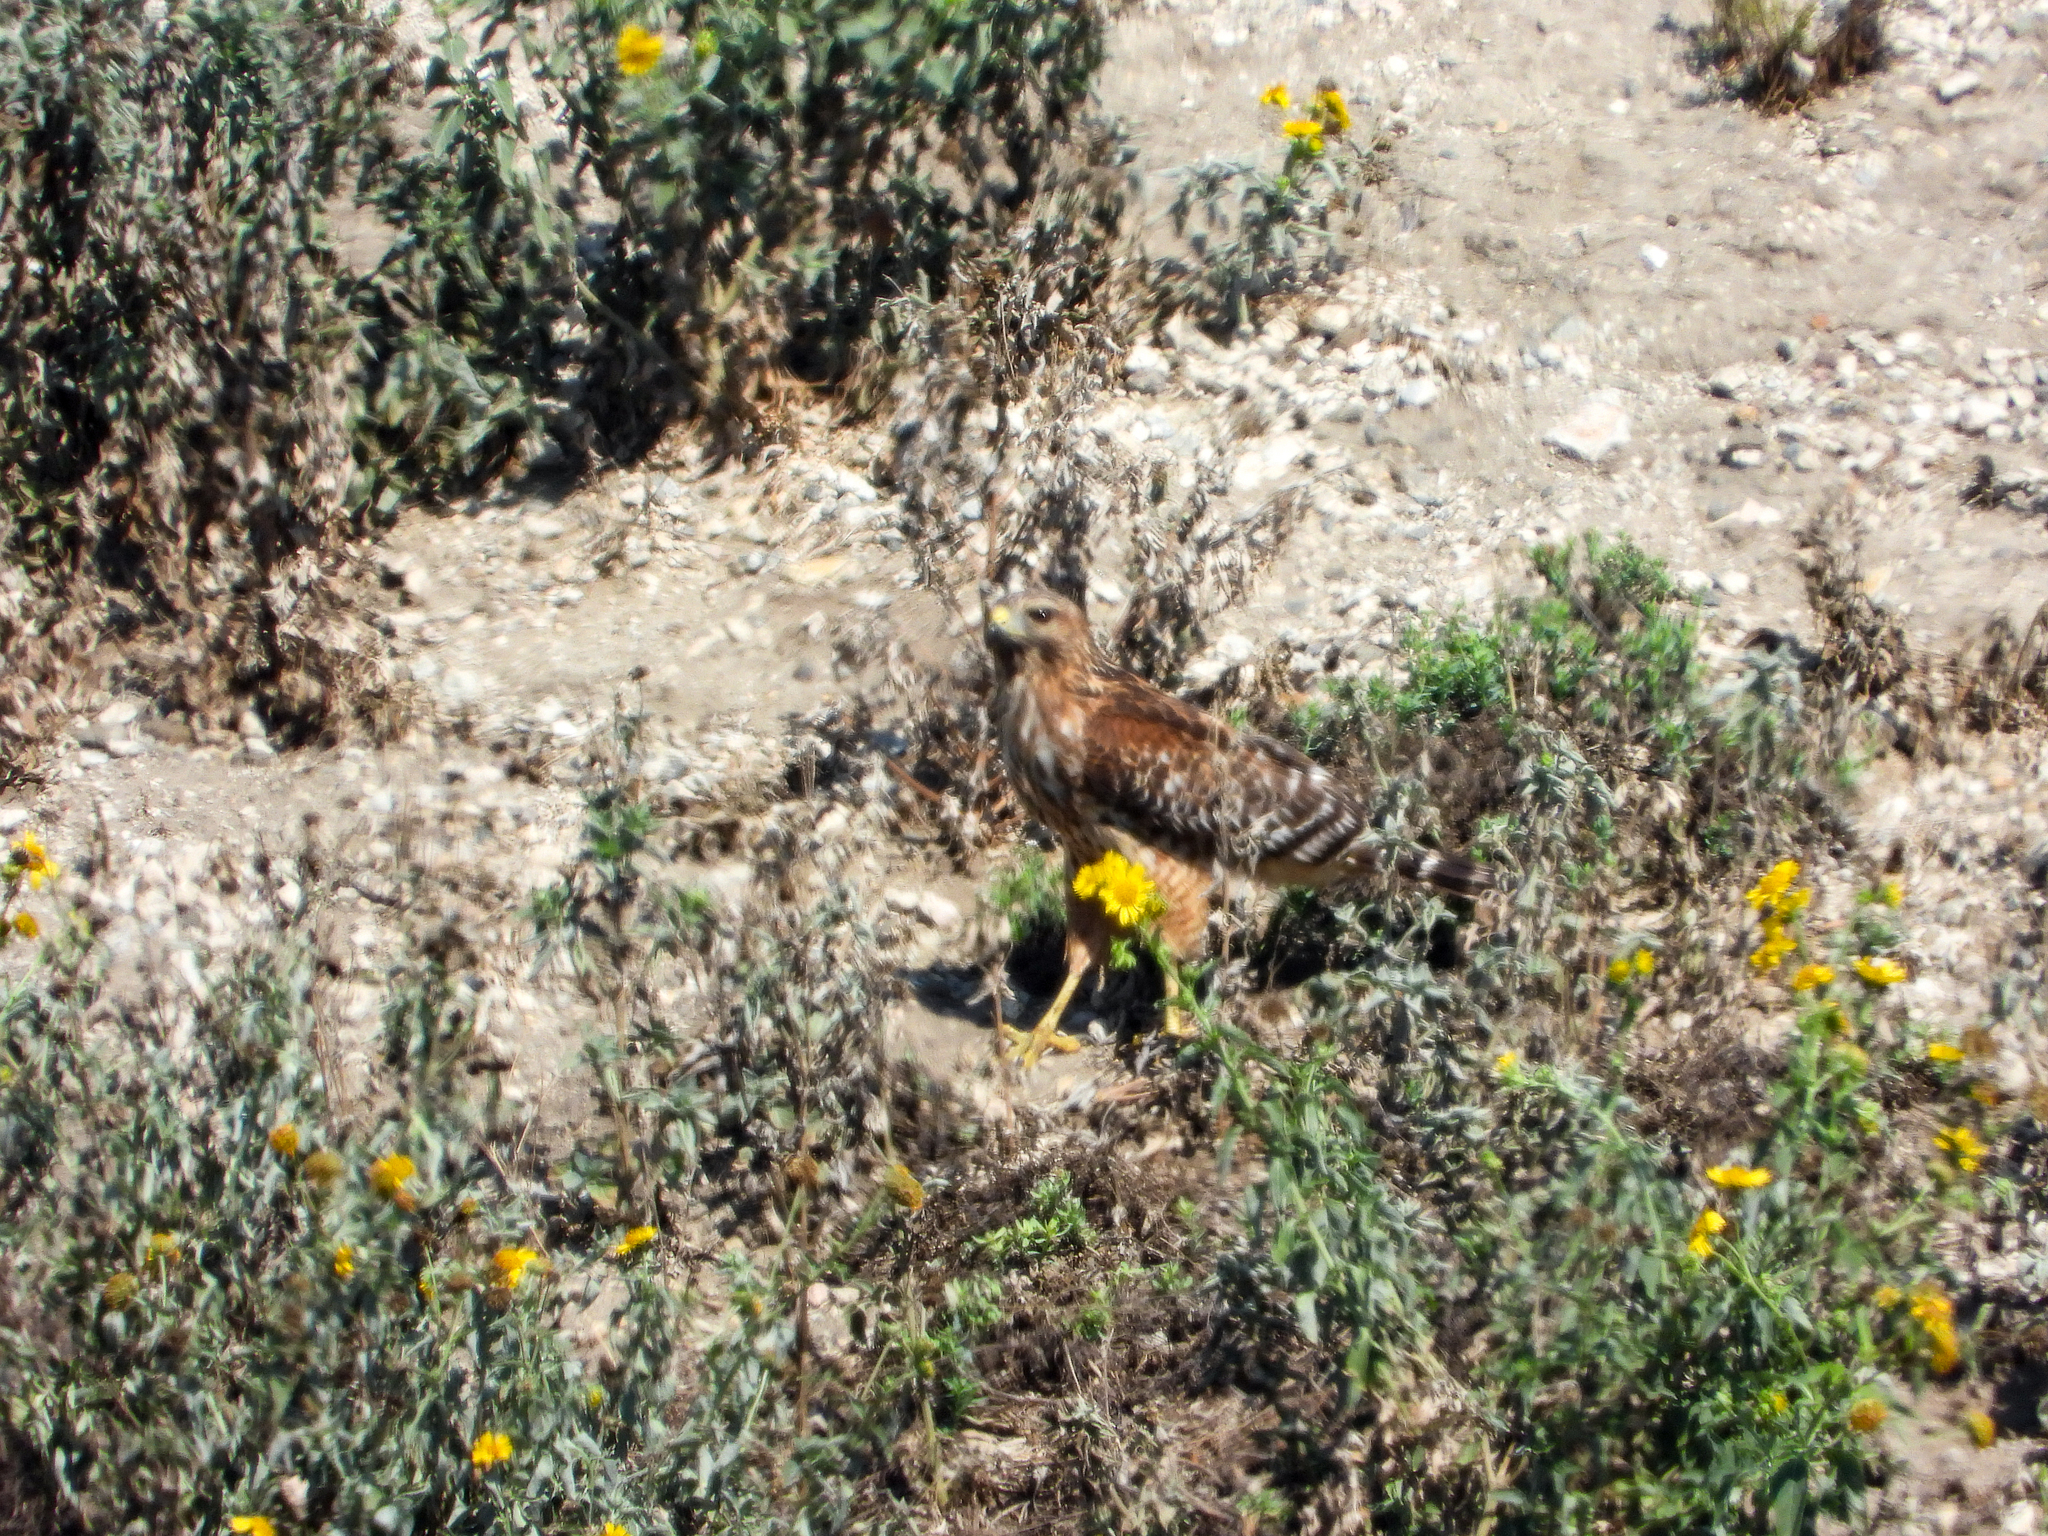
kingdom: Animalia
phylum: Chordata
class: Aves
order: Accipitriformes
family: Accipitridae
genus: Buteo
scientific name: Buteo lineatus
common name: Red-shouldered hawk
